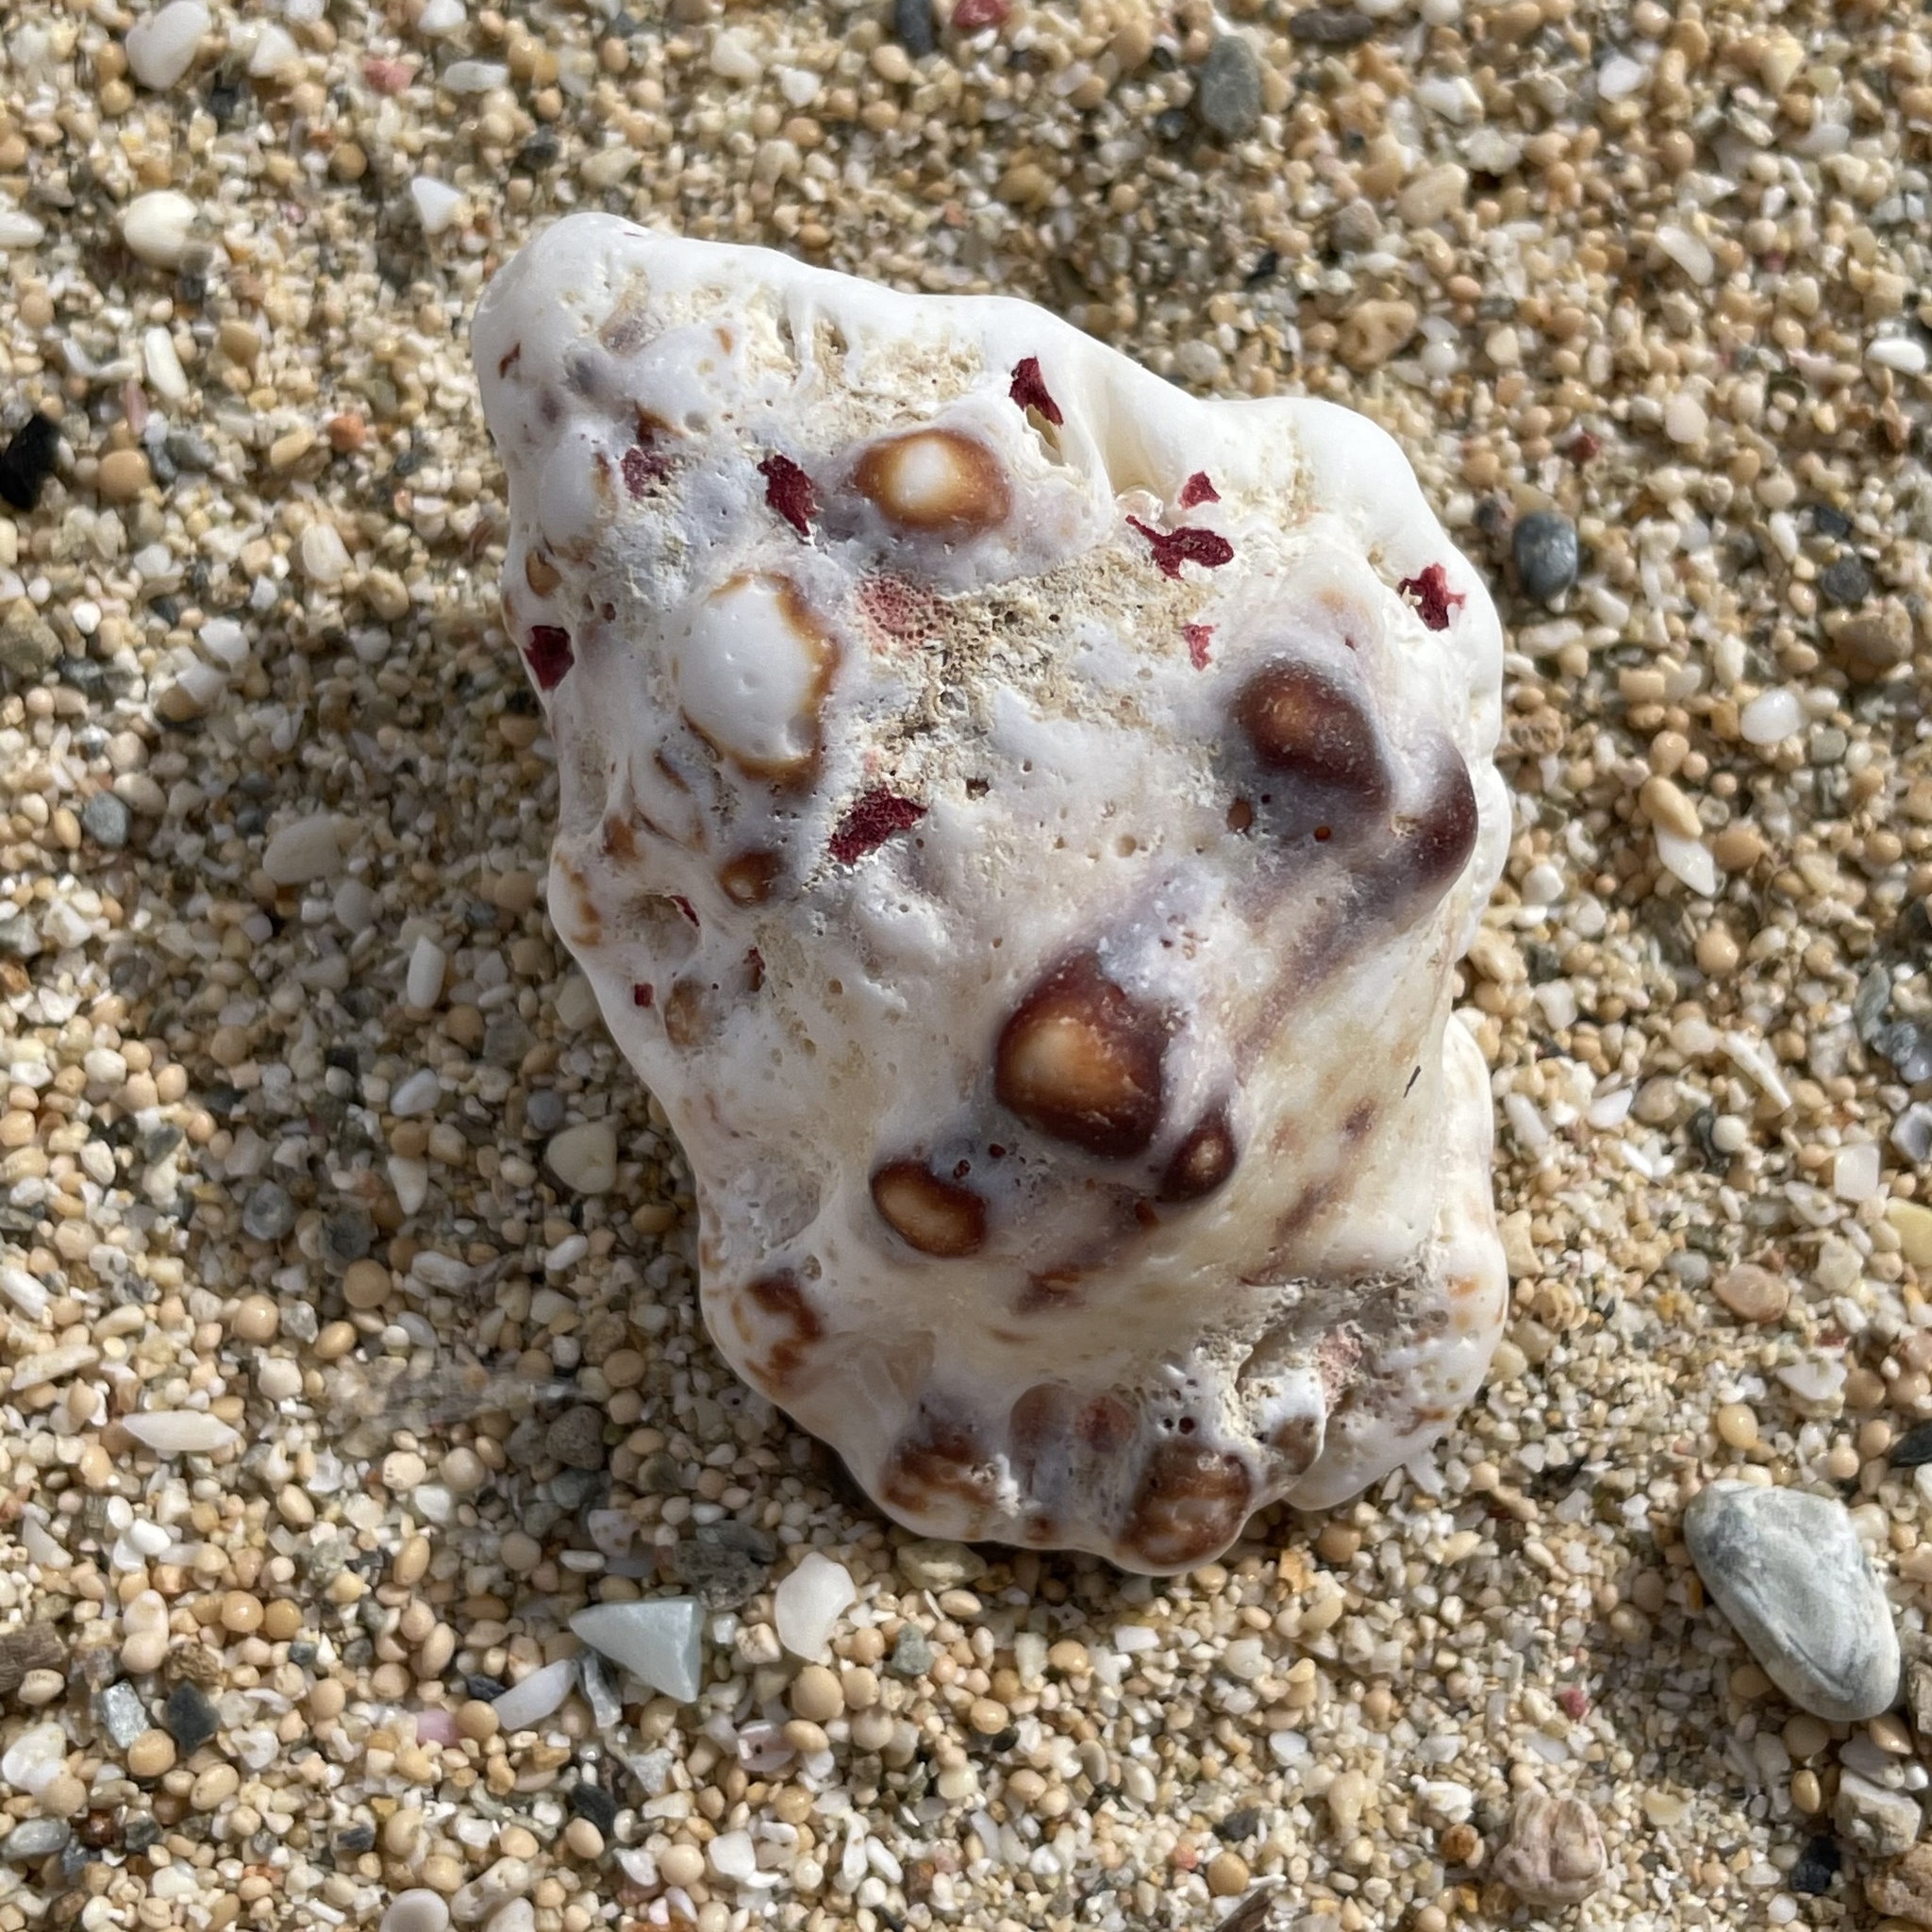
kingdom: Animalia
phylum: Mollusca
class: Gastropoda
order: Littorinimorpha
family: Bursidae
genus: Bursa
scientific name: Bursa bufonia
